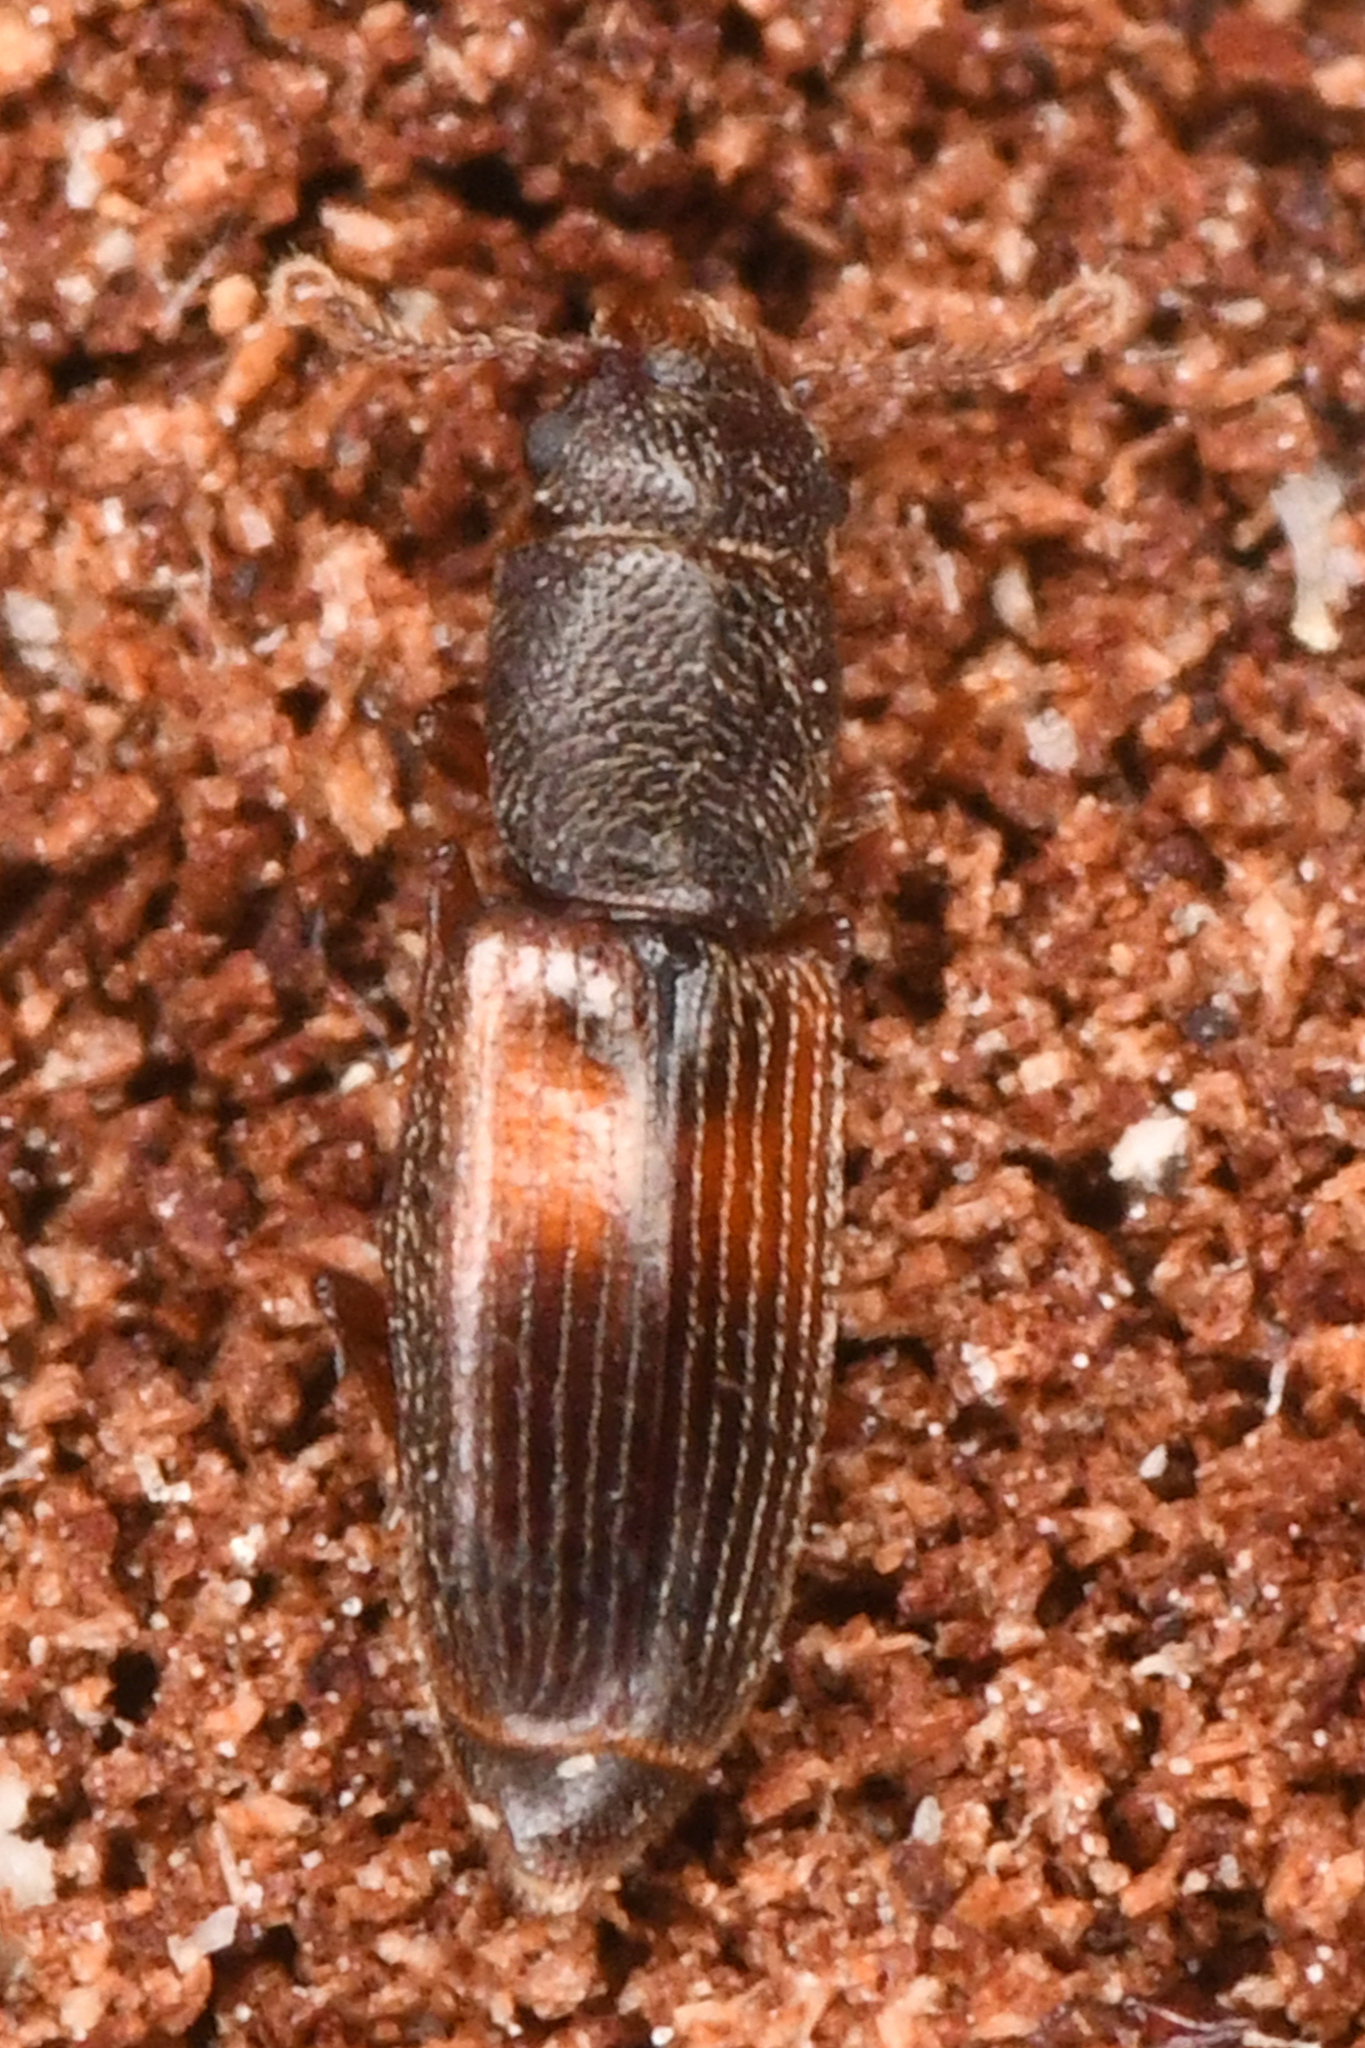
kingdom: Animalia
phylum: Arthropoda
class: Insecta
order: Coleoptera
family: Monotomidae
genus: Hesperobaenus
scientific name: Hesperobaenus abbreviatus
